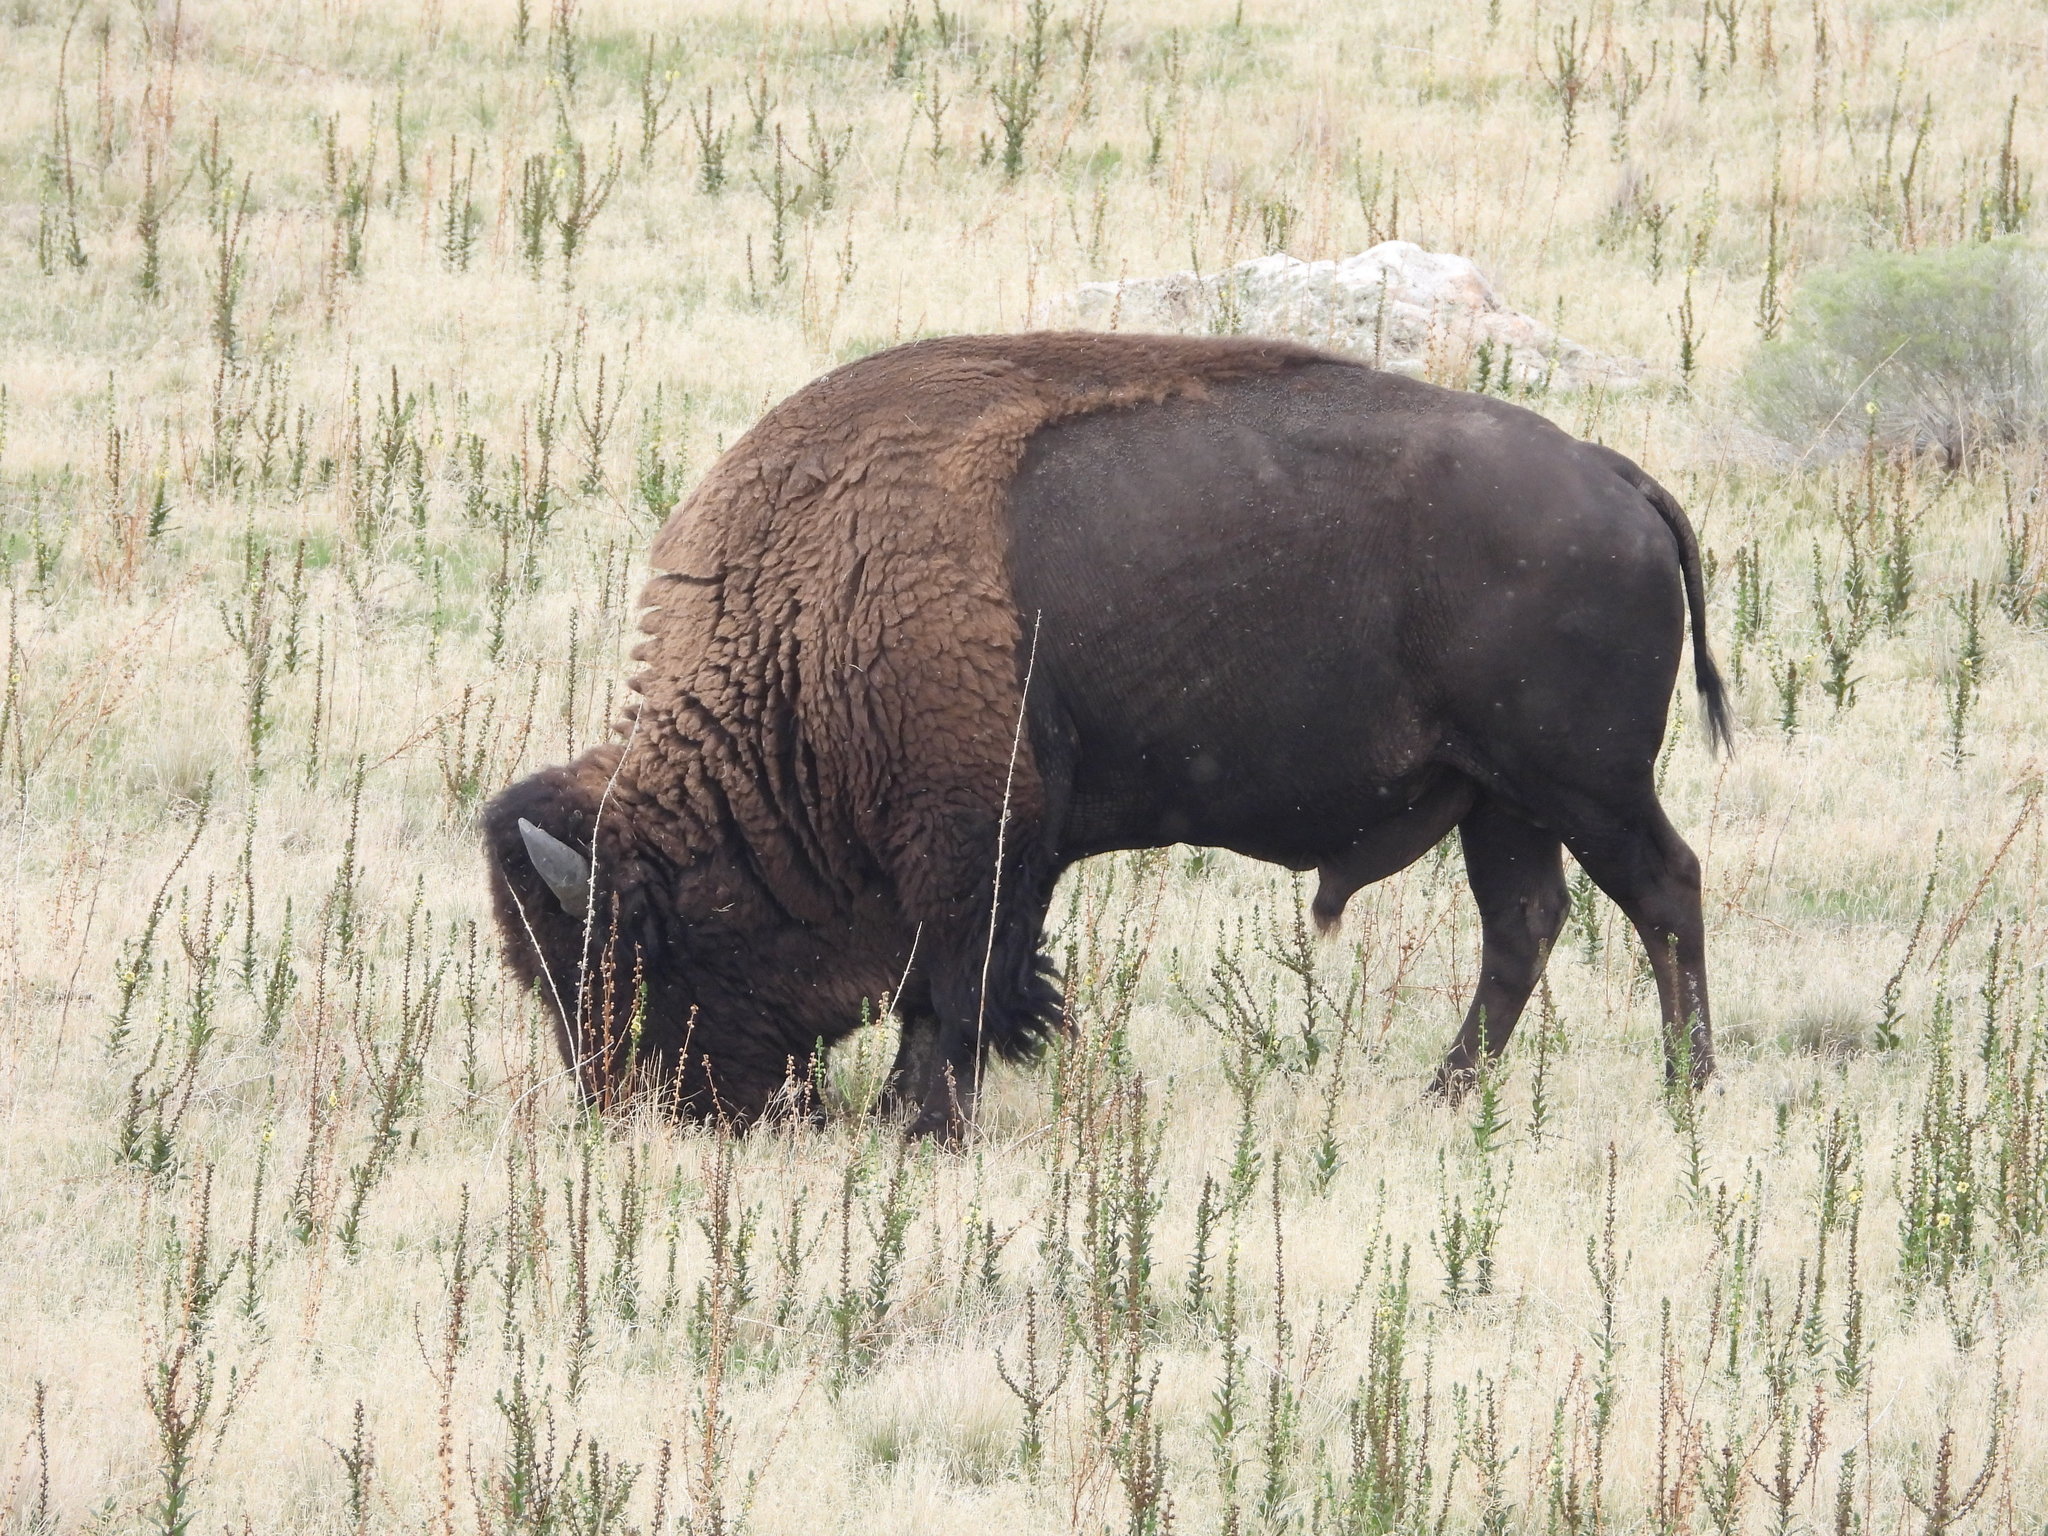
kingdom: Animalia
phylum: Chordata
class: Mammalia
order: Artiodactyla
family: Bovidae
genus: Bison
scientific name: Bison bison
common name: American bison
